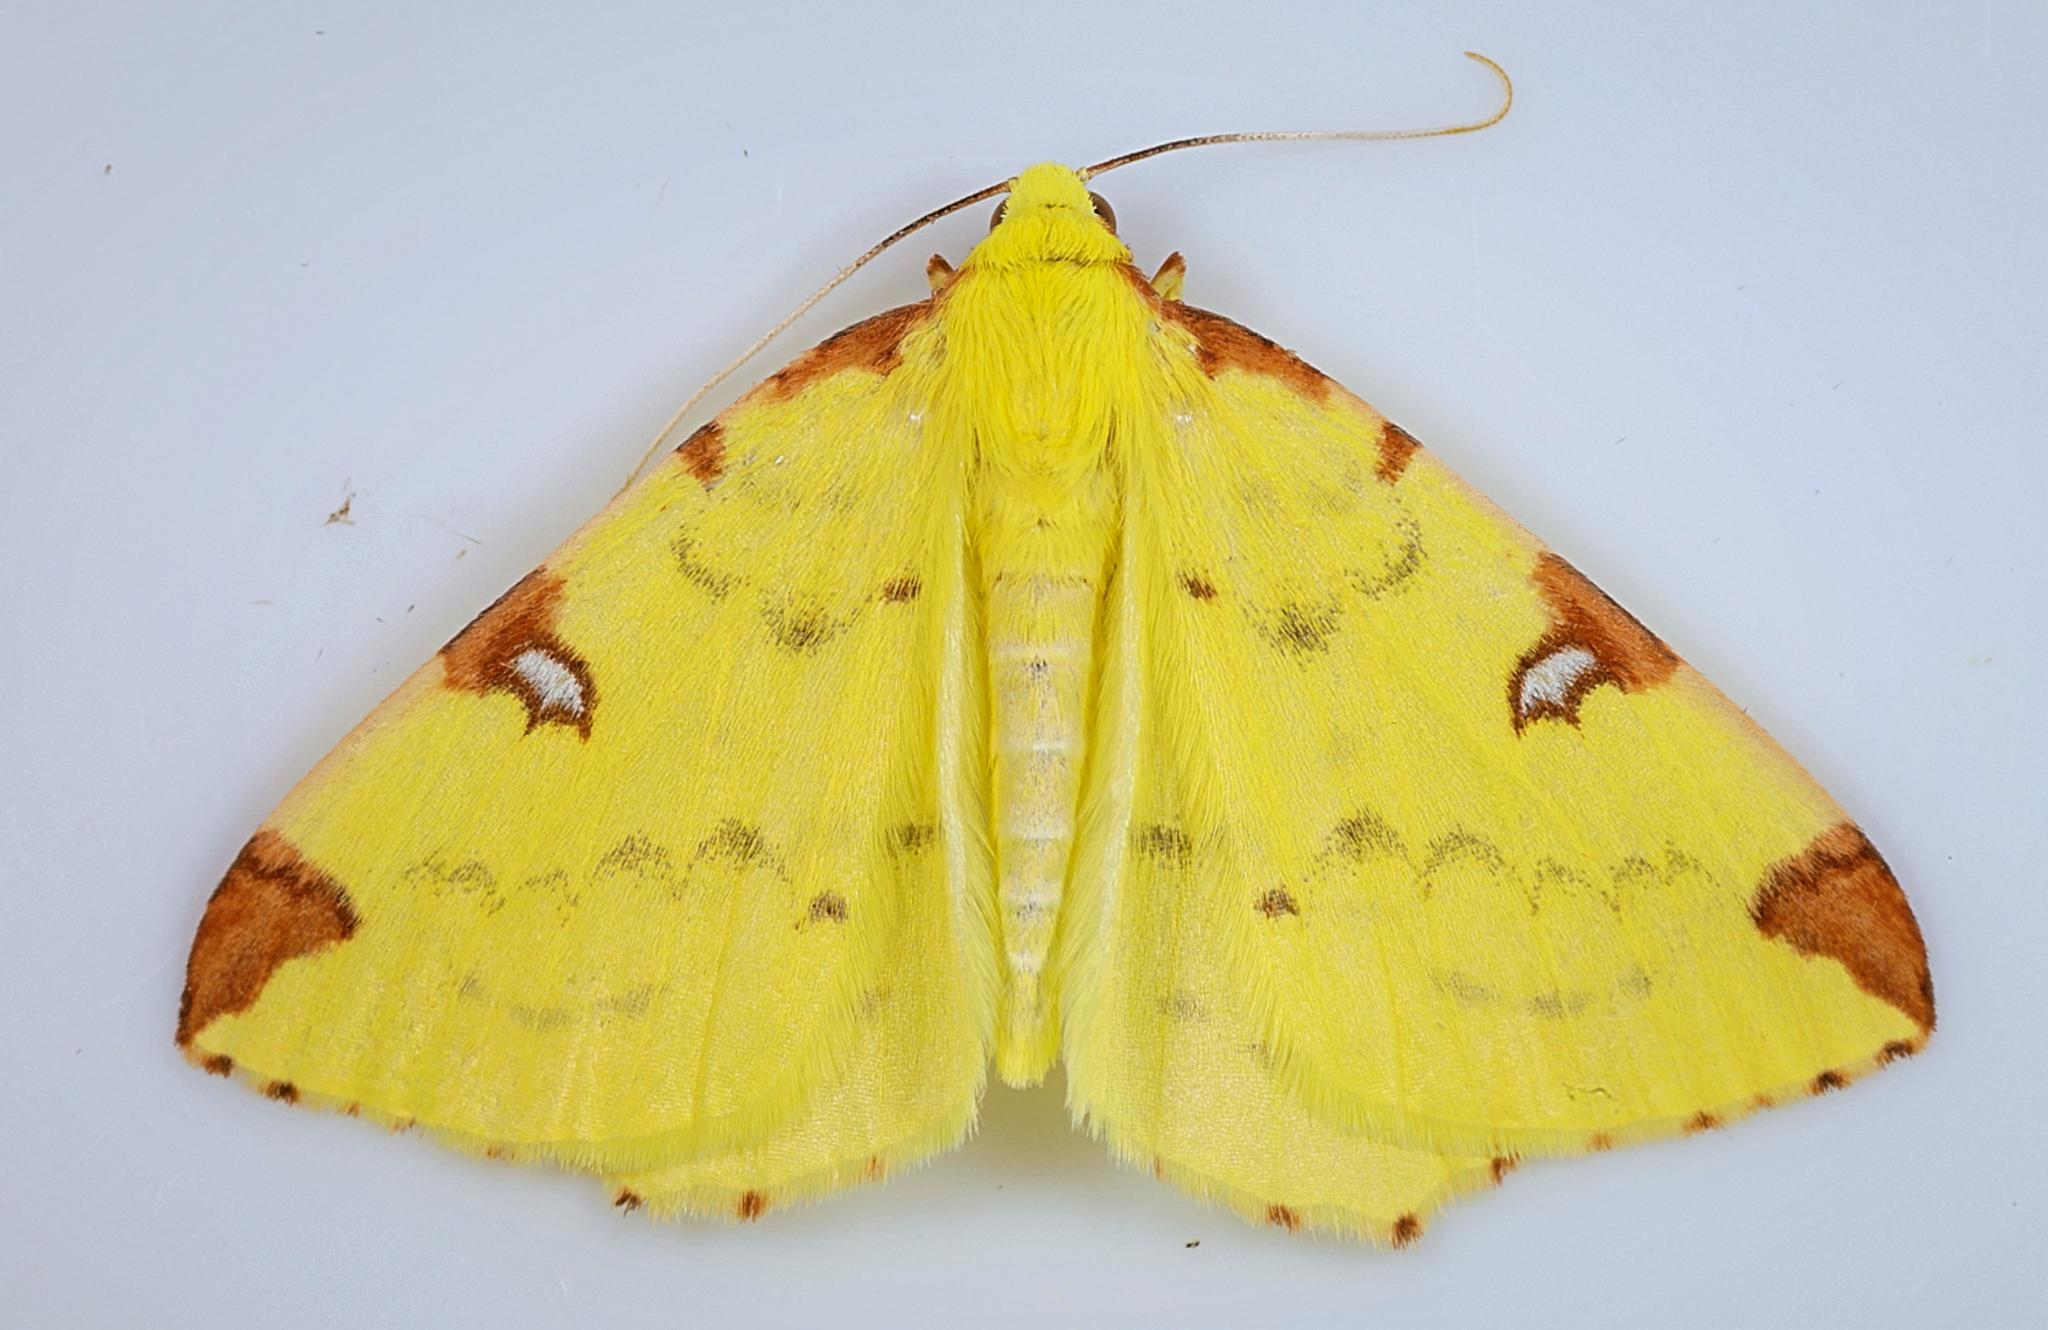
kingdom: Animalia
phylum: Arthropoda
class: Insecta
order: Lepidoptera
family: Geometridae
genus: Opisthograptis
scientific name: Opisthograptis luteolata
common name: Brimstone moth
